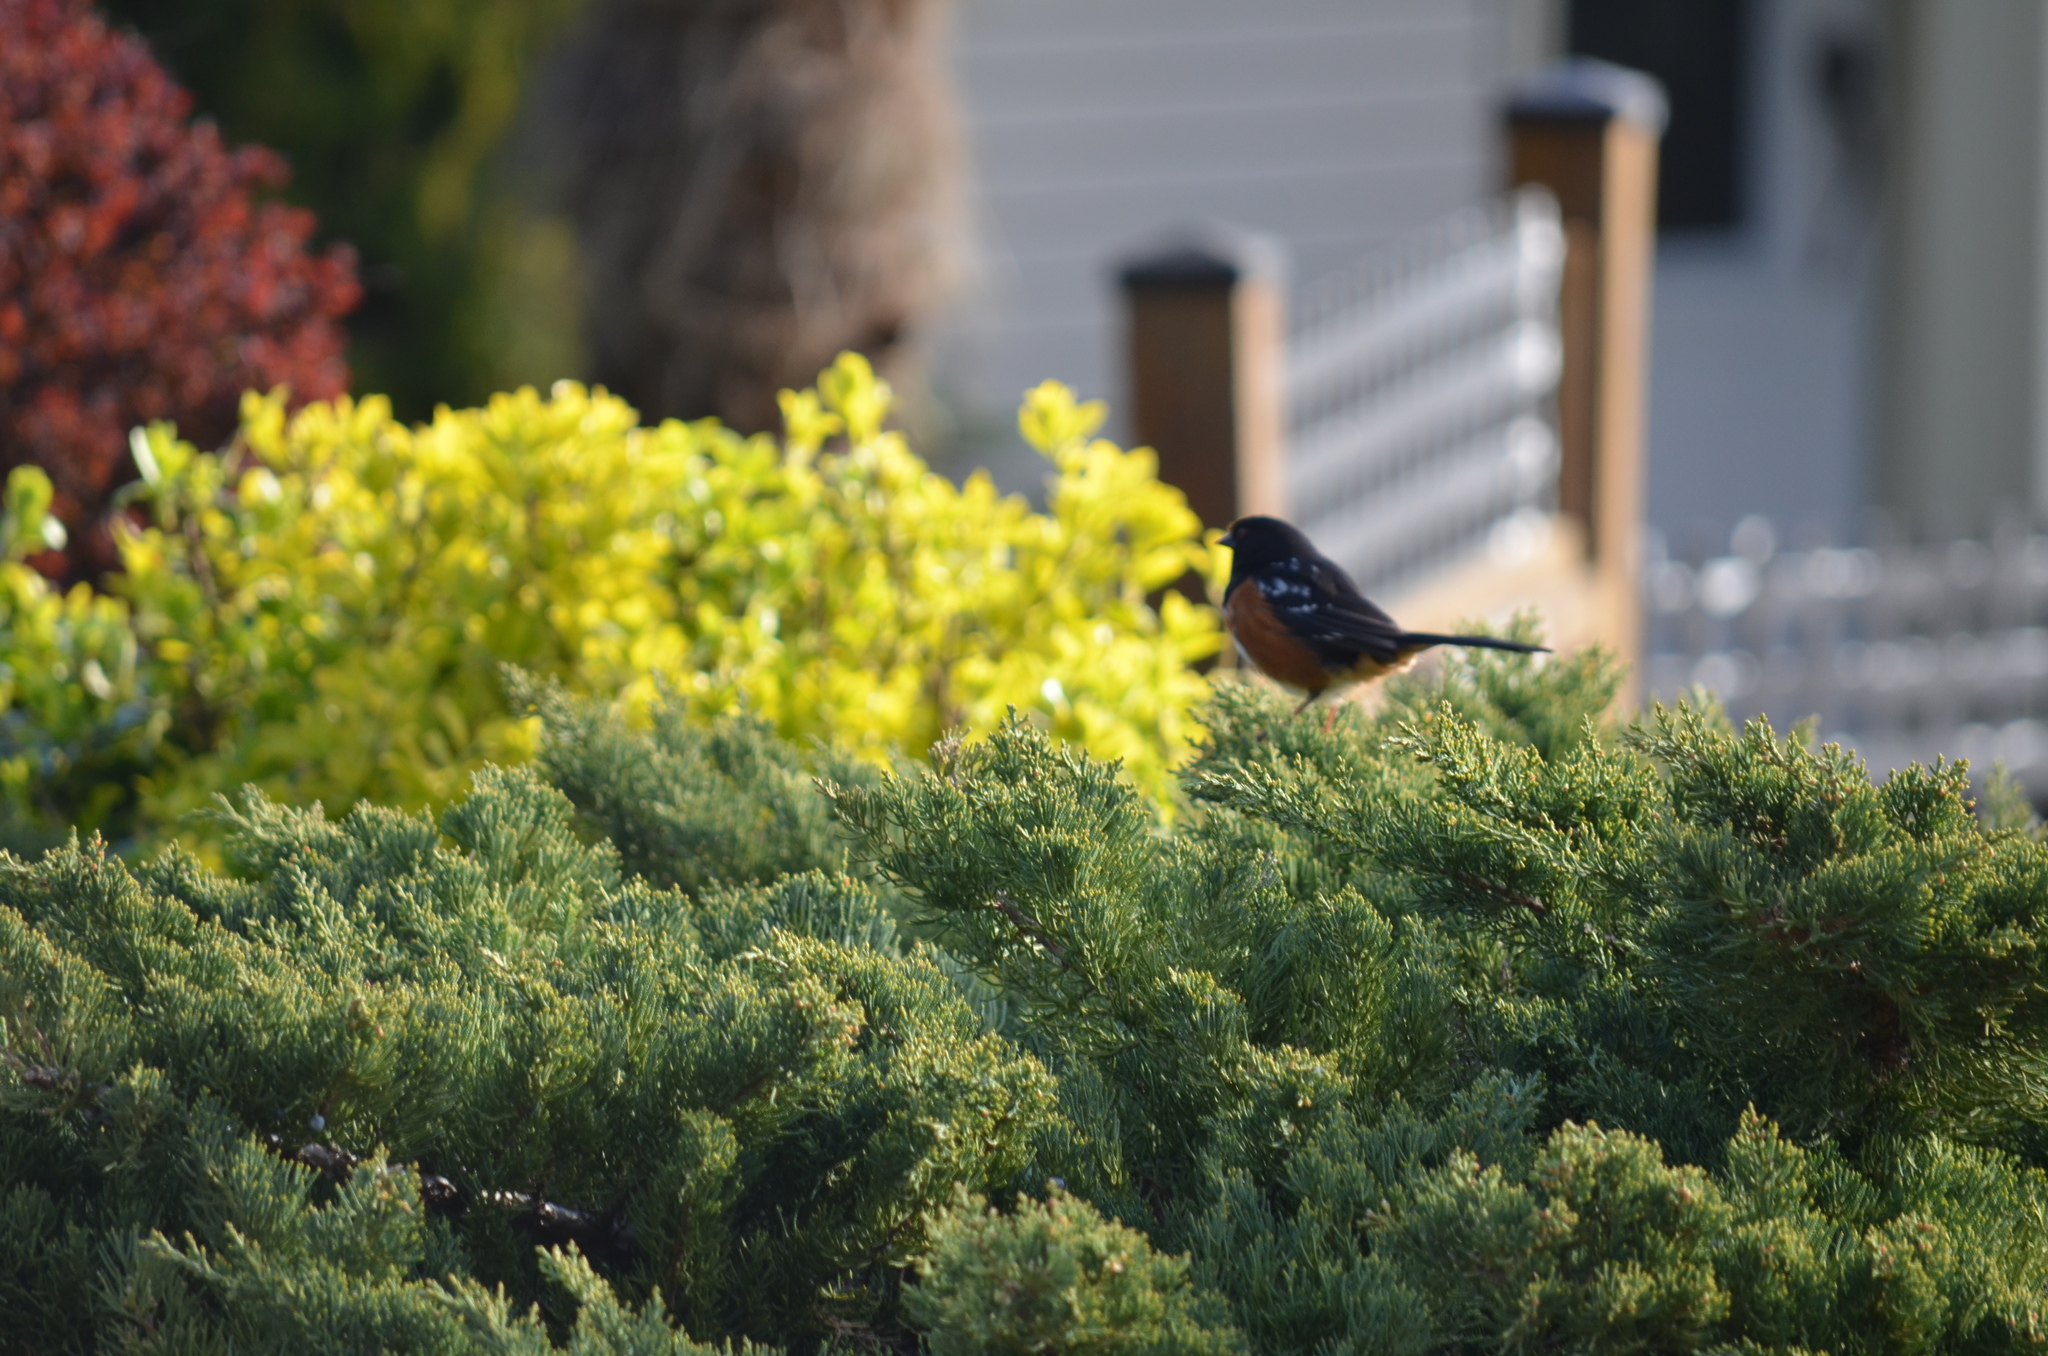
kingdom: Animalia
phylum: Chordata
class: Aves
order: Passeriformes
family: Passerellidae
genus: Pipilo
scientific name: Pipilo maculatus
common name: Spotted towhee
